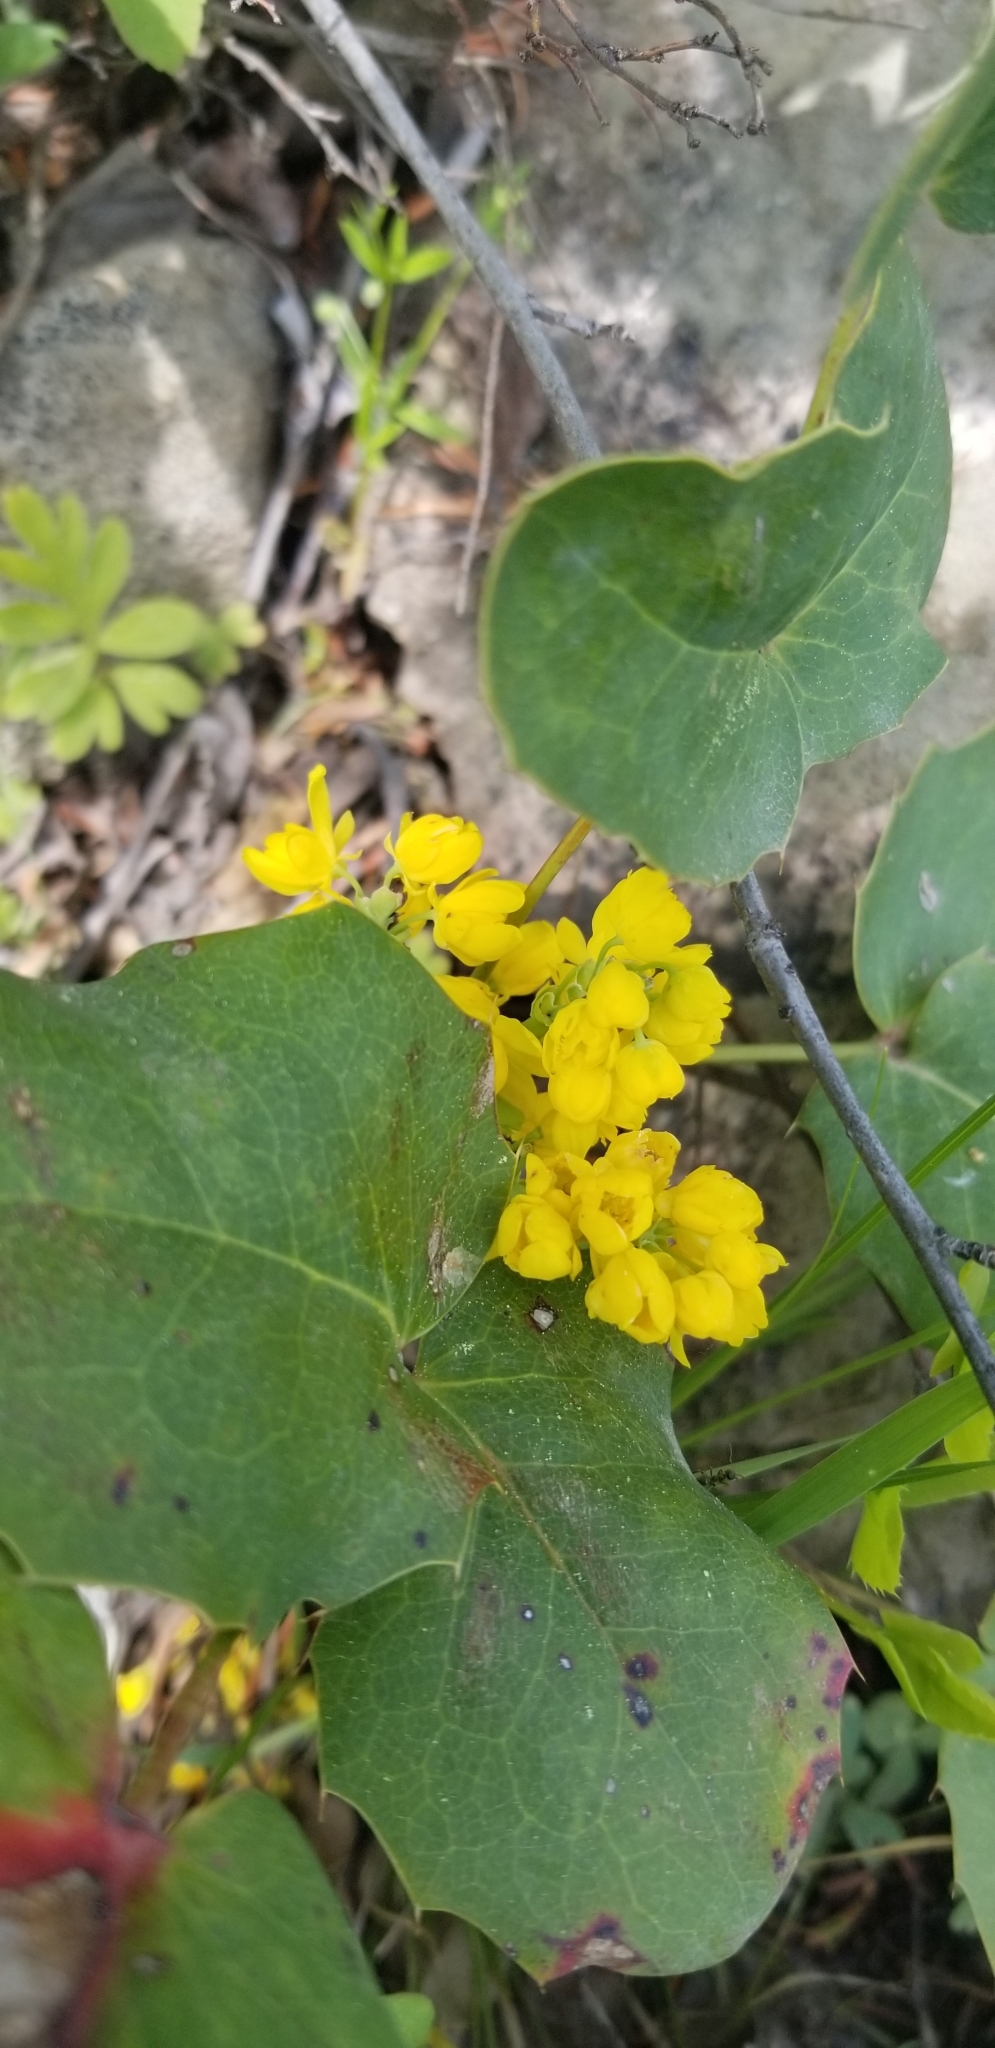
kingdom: Plantae
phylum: Tracheophyta
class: Magnoliopsida
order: Ranunculales
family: Berberidaceae
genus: Mahonia
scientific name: Mahonia repens
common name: Creeping oregon-grape
